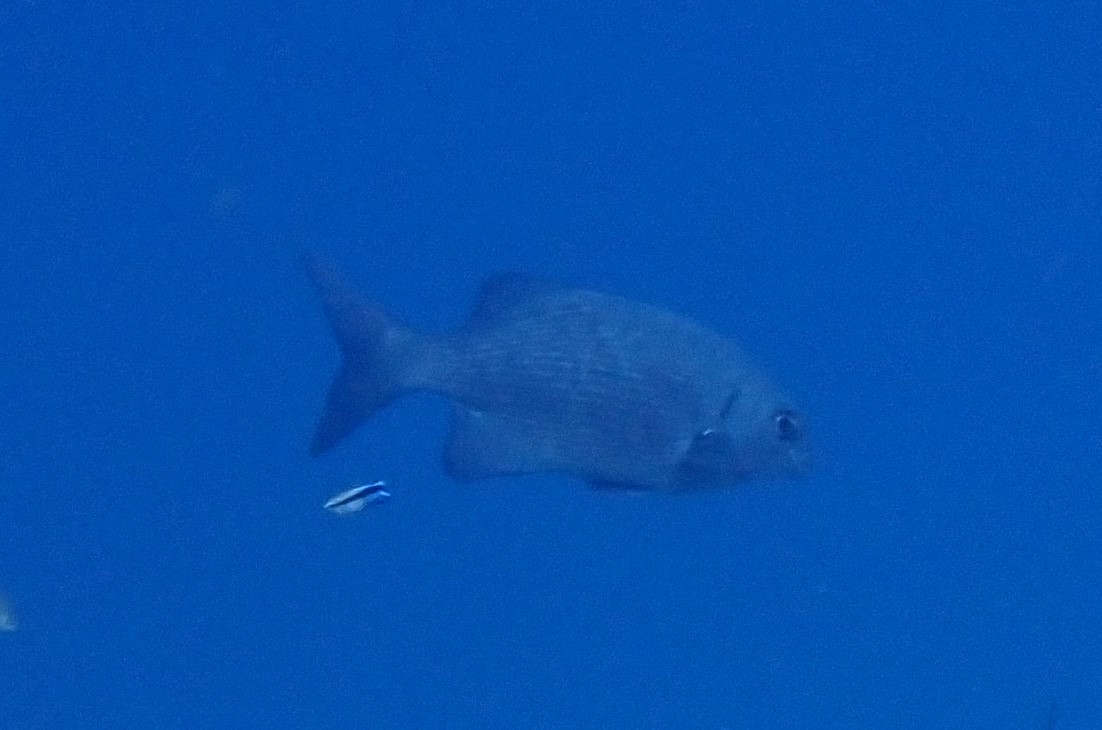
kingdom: Animalia
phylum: Chordata
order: Perciformes
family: Kyphosidae
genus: Kyphosus
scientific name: Kyphosus cinerascens
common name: Topsail drummer
